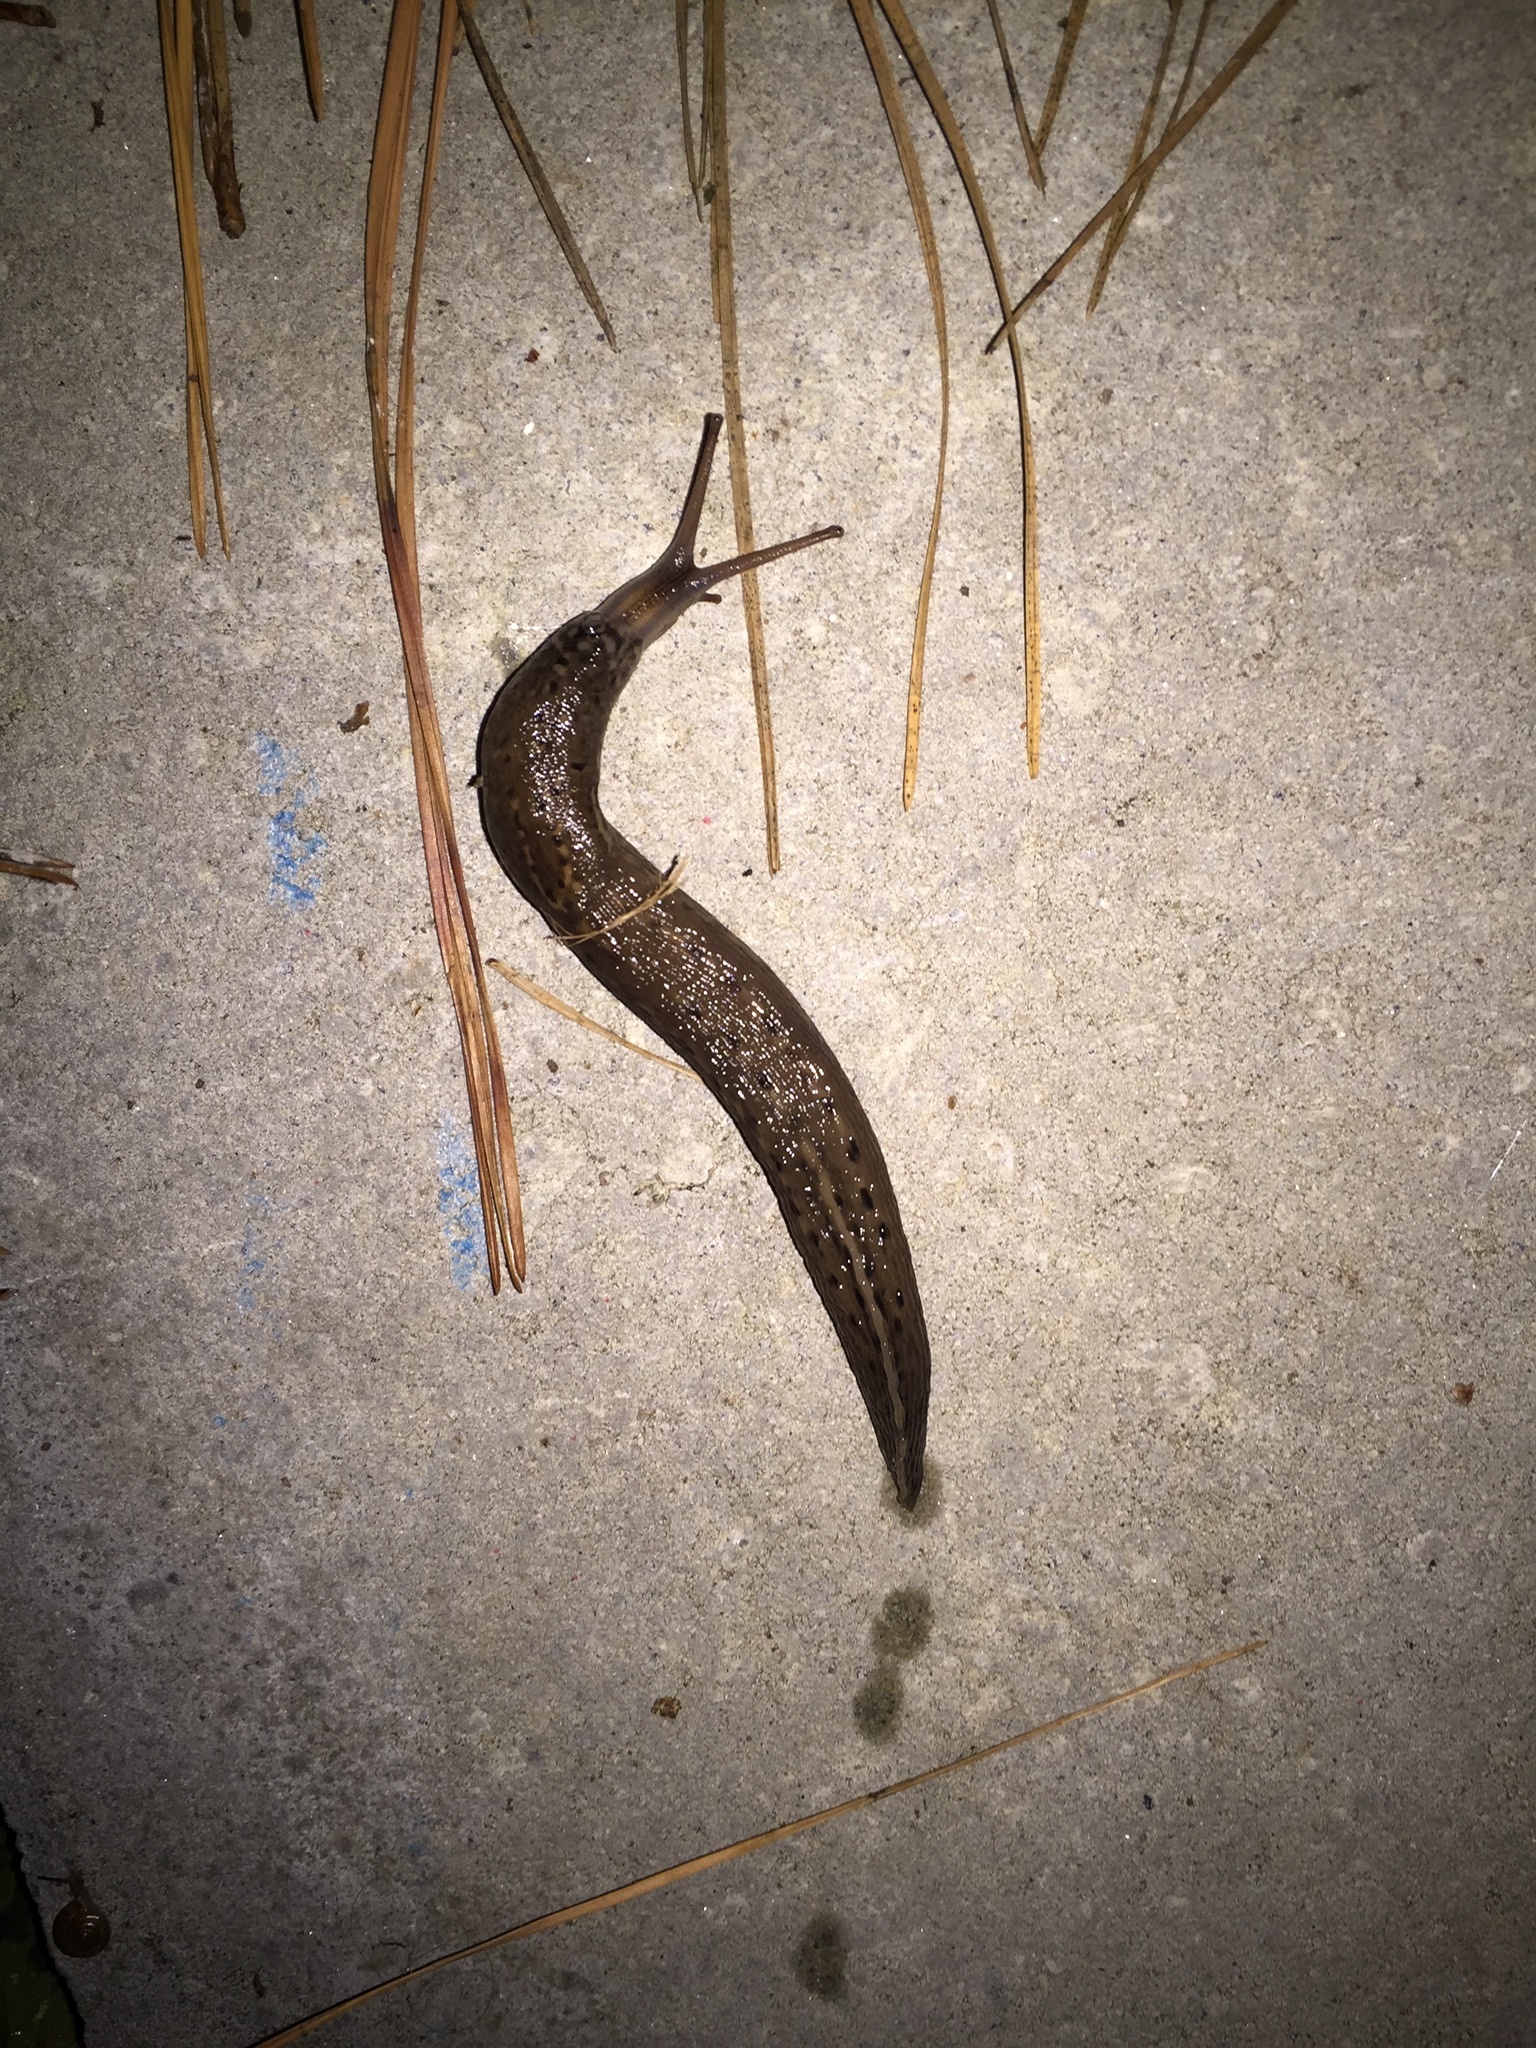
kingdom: Animalia
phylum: Mollusca
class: Gastropoda
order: Stylommatophora
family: Limacidae
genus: Limax
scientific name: Limax maximus
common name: Great grey slug
